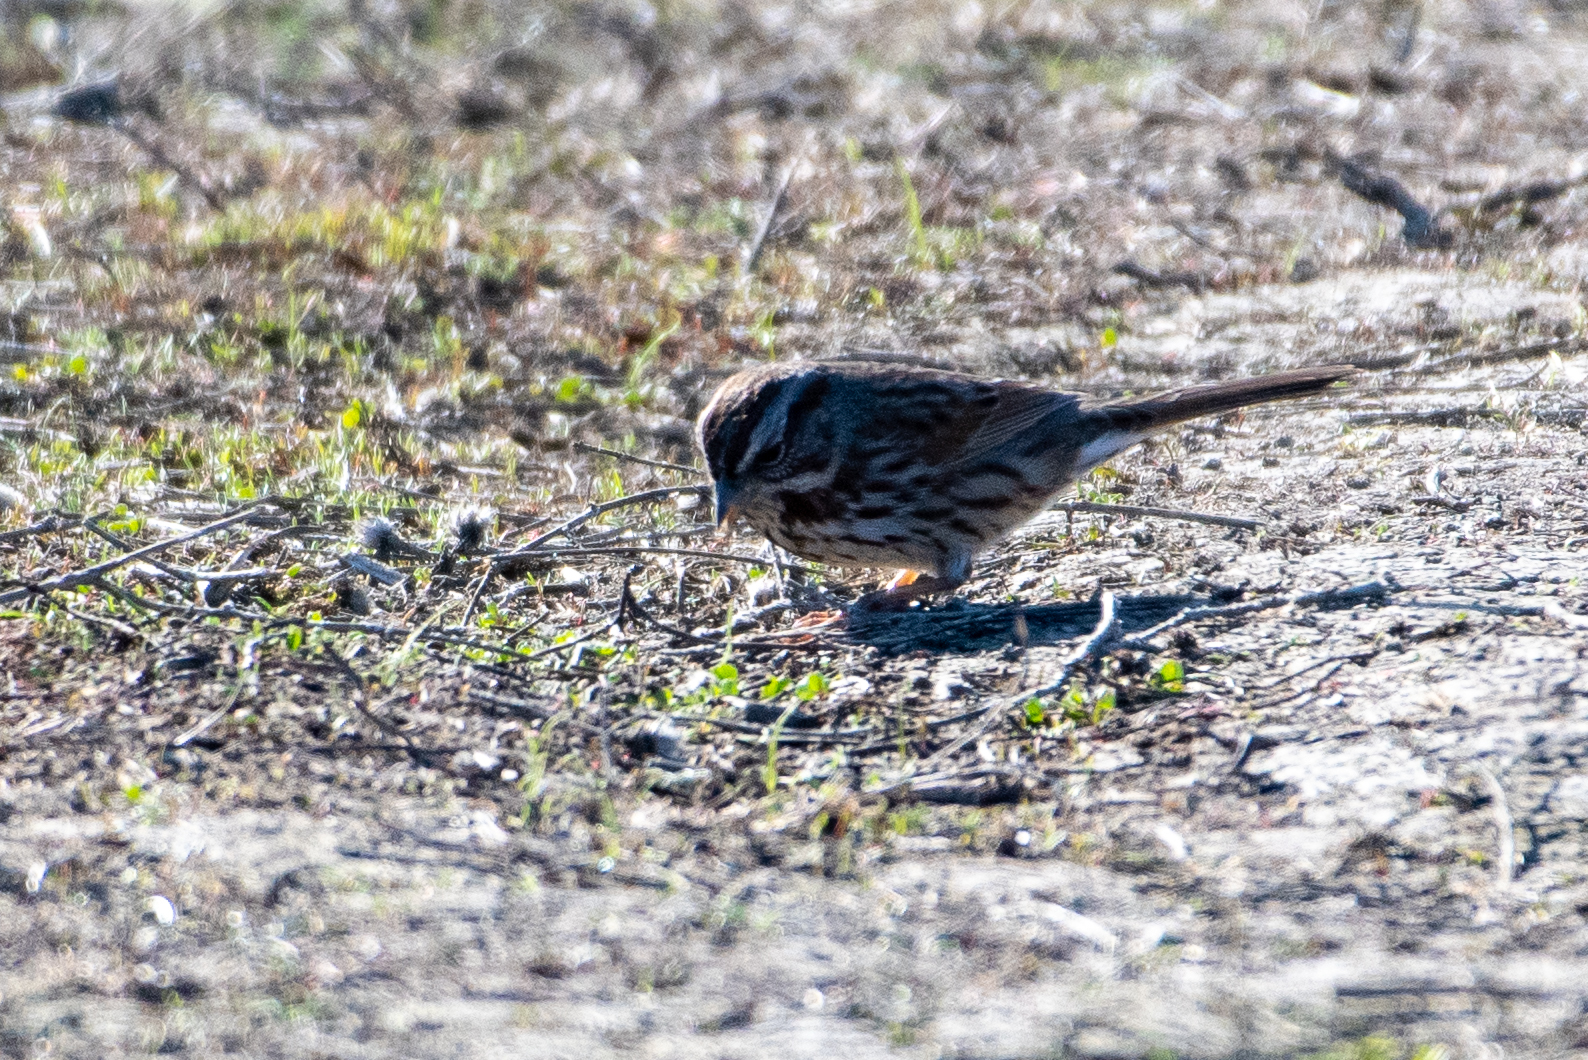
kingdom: Animalia
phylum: Chordata
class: Aves
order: Passeriformes
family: Passerellidae
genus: Melospiza
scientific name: Melospiza melodia
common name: Song sparrow
